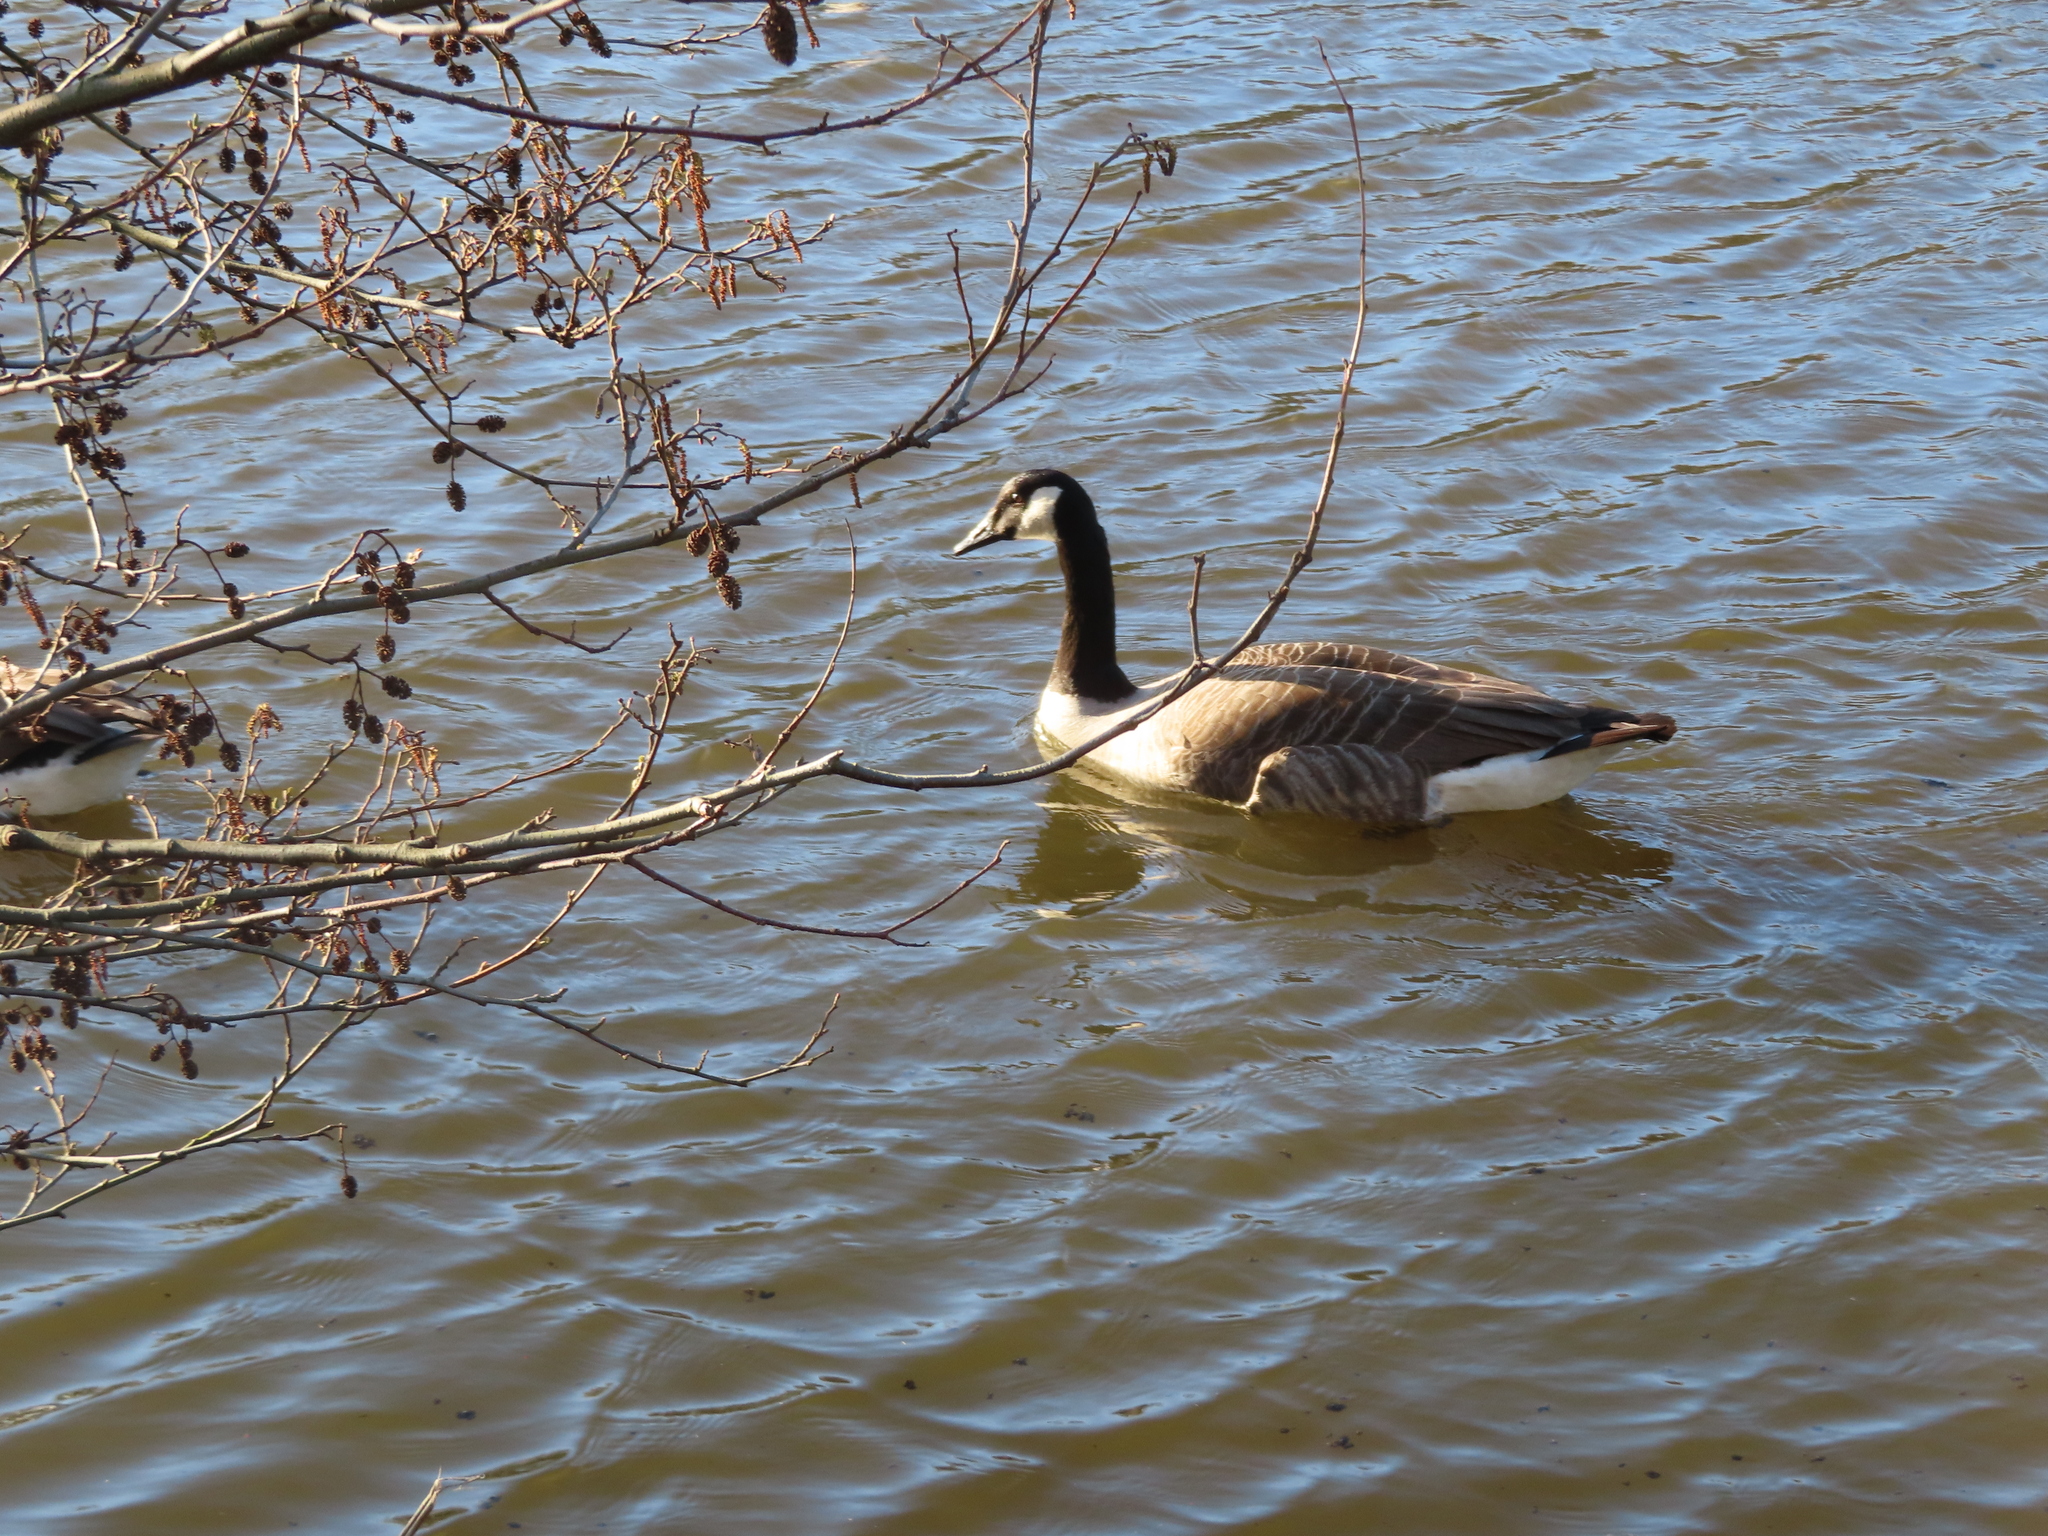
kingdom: Animalia
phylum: Chordata
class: Aves
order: Anseriformes
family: Anatidae
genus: Branta
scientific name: Branta canadensis
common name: Canada goose
